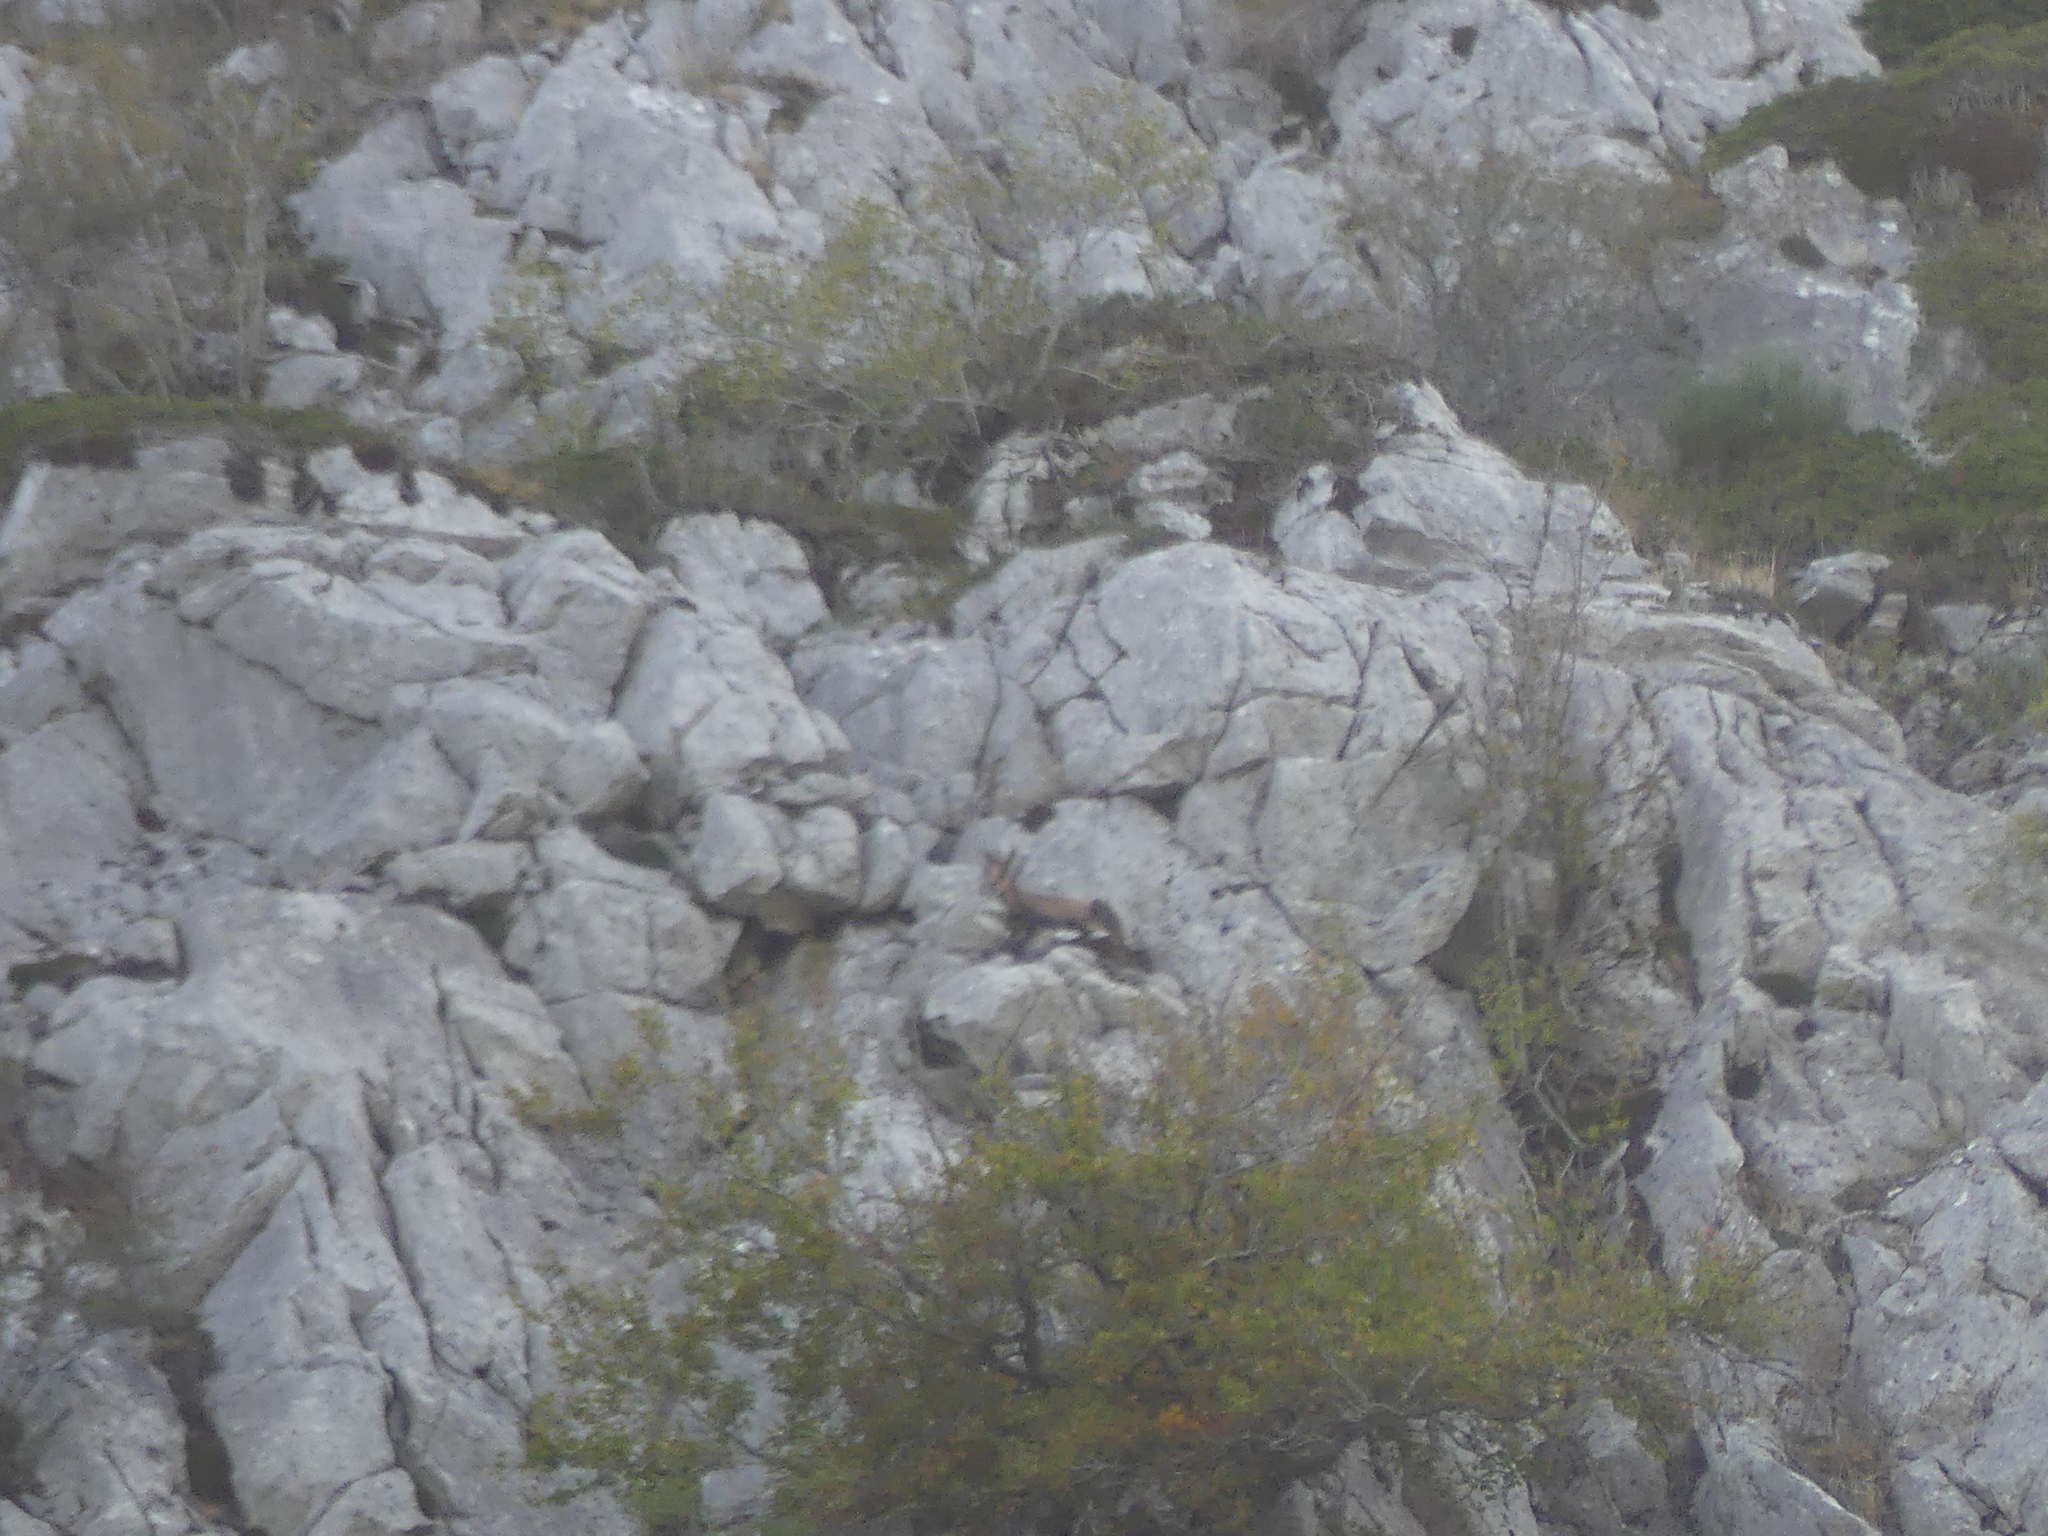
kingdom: Animalia
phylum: Chordata
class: Mammalia
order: Artiodactyla
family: Bovidae
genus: Rupicapra
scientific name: Rupicapra pyrenaica
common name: Pyrenean chamois
